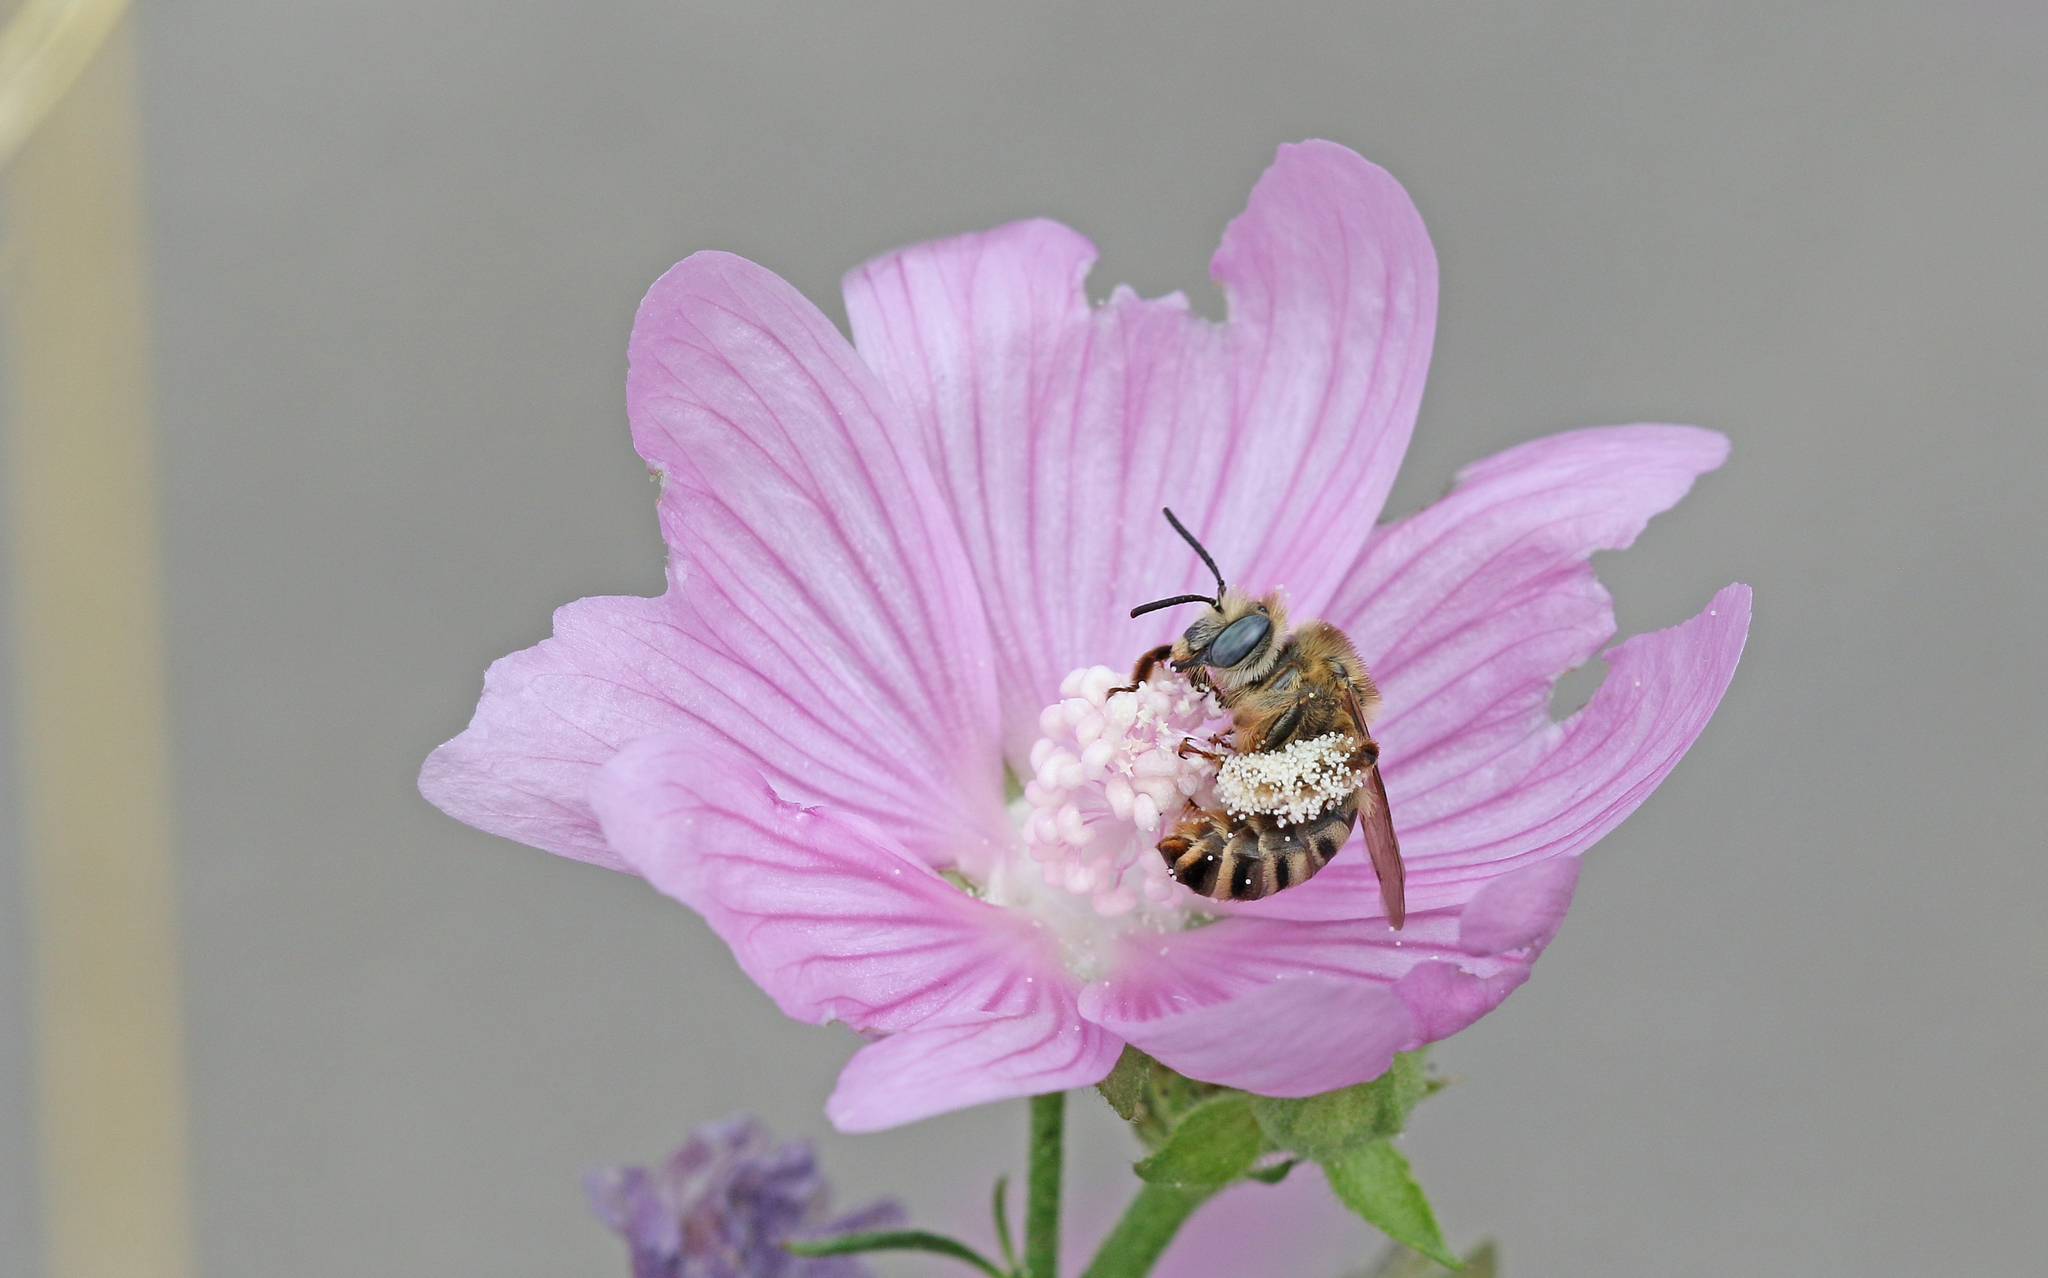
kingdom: Animalia
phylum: Arthropoda
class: Insecta
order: Hymenoptera
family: Apidae
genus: Tetralonia
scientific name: Tetralonia malvae
